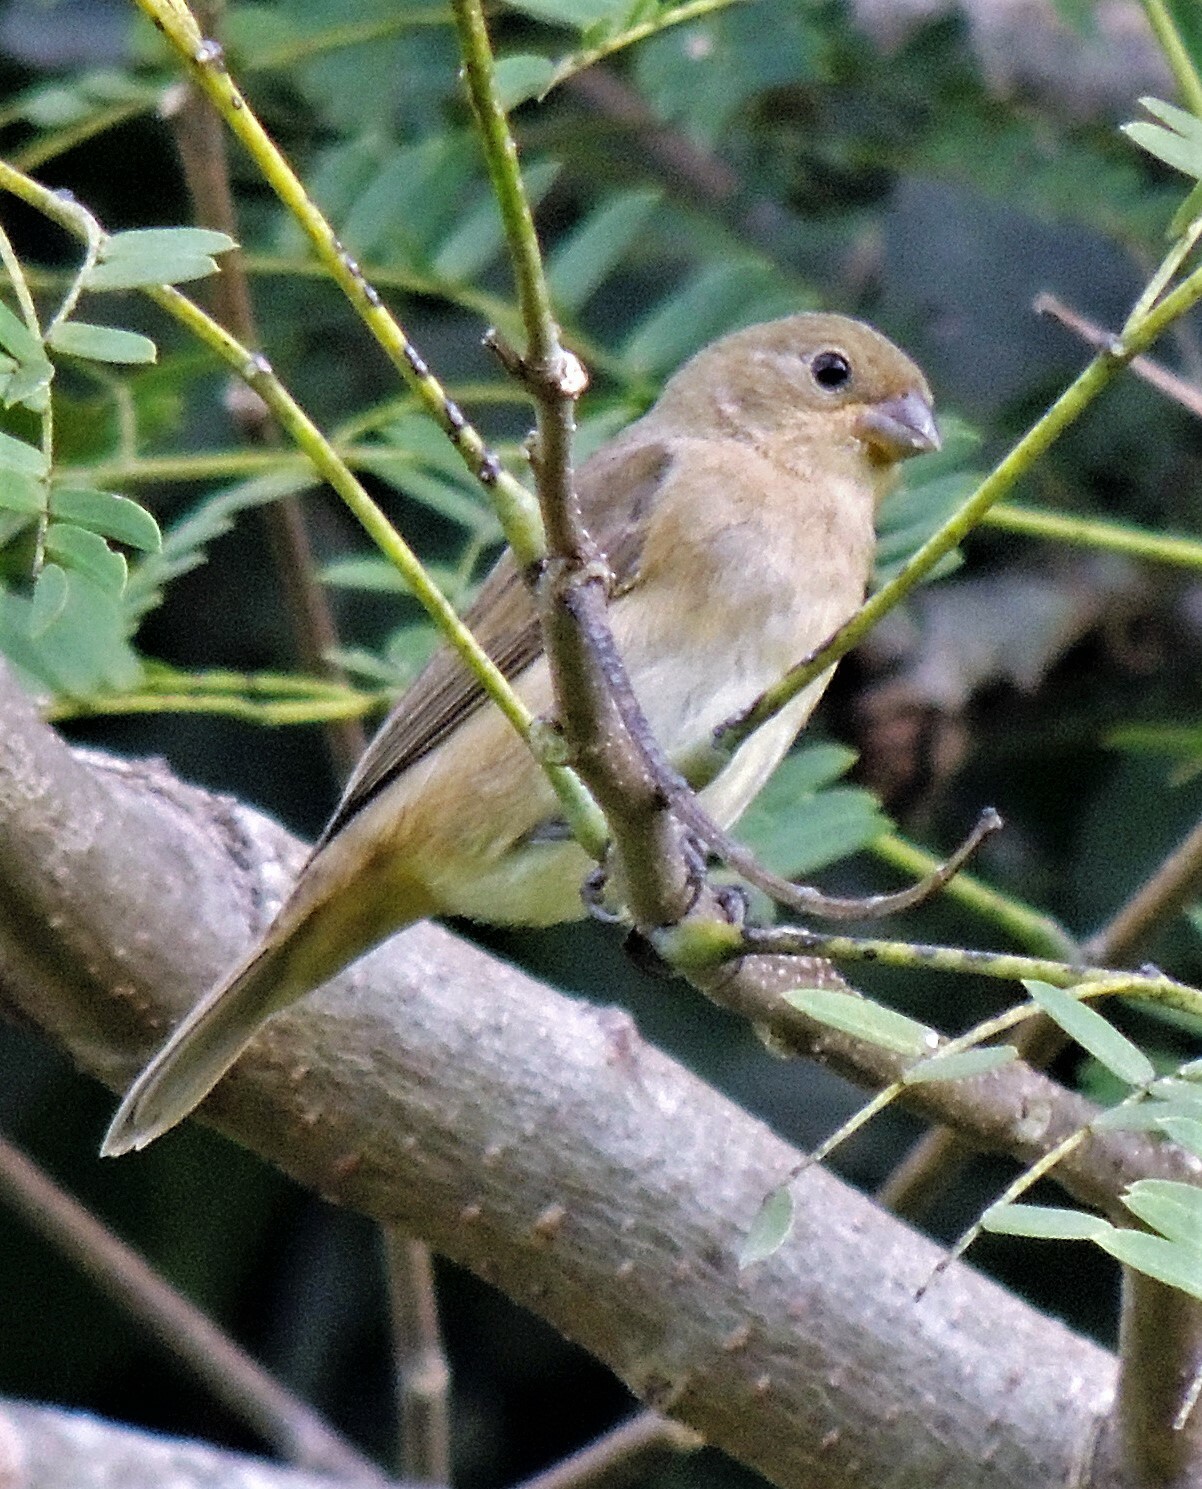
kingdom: Animalia
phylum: Chordata
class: Aves
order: Passeriformes
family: Thraupidae
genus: Sporophila
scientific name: Sporophila caerulescens
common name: Double-collared seedeater
